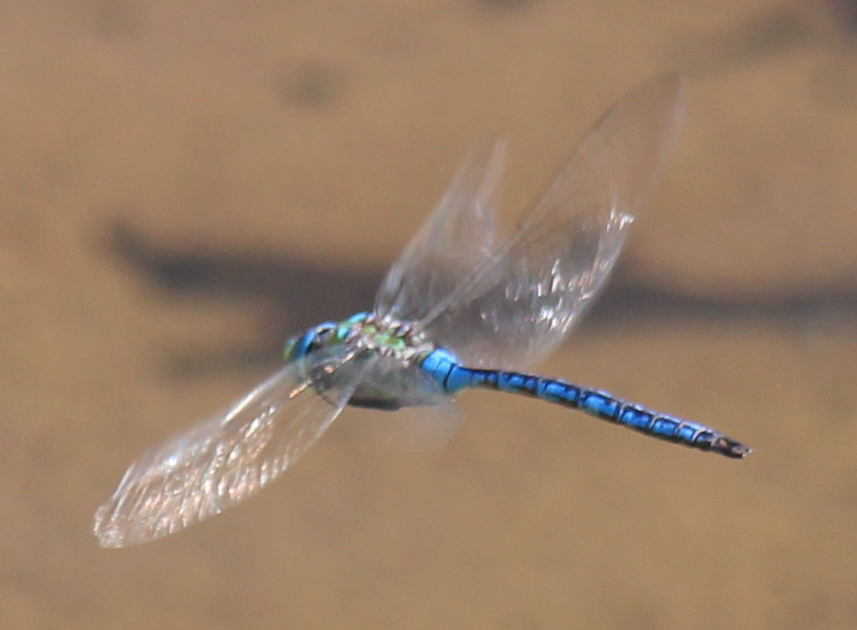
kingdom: Animalia
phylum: Arthropoda
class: Insecta
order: Odonata
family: Aeshnidae
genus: Anax
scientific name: Anax imperator
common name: Emperor dragonfly
